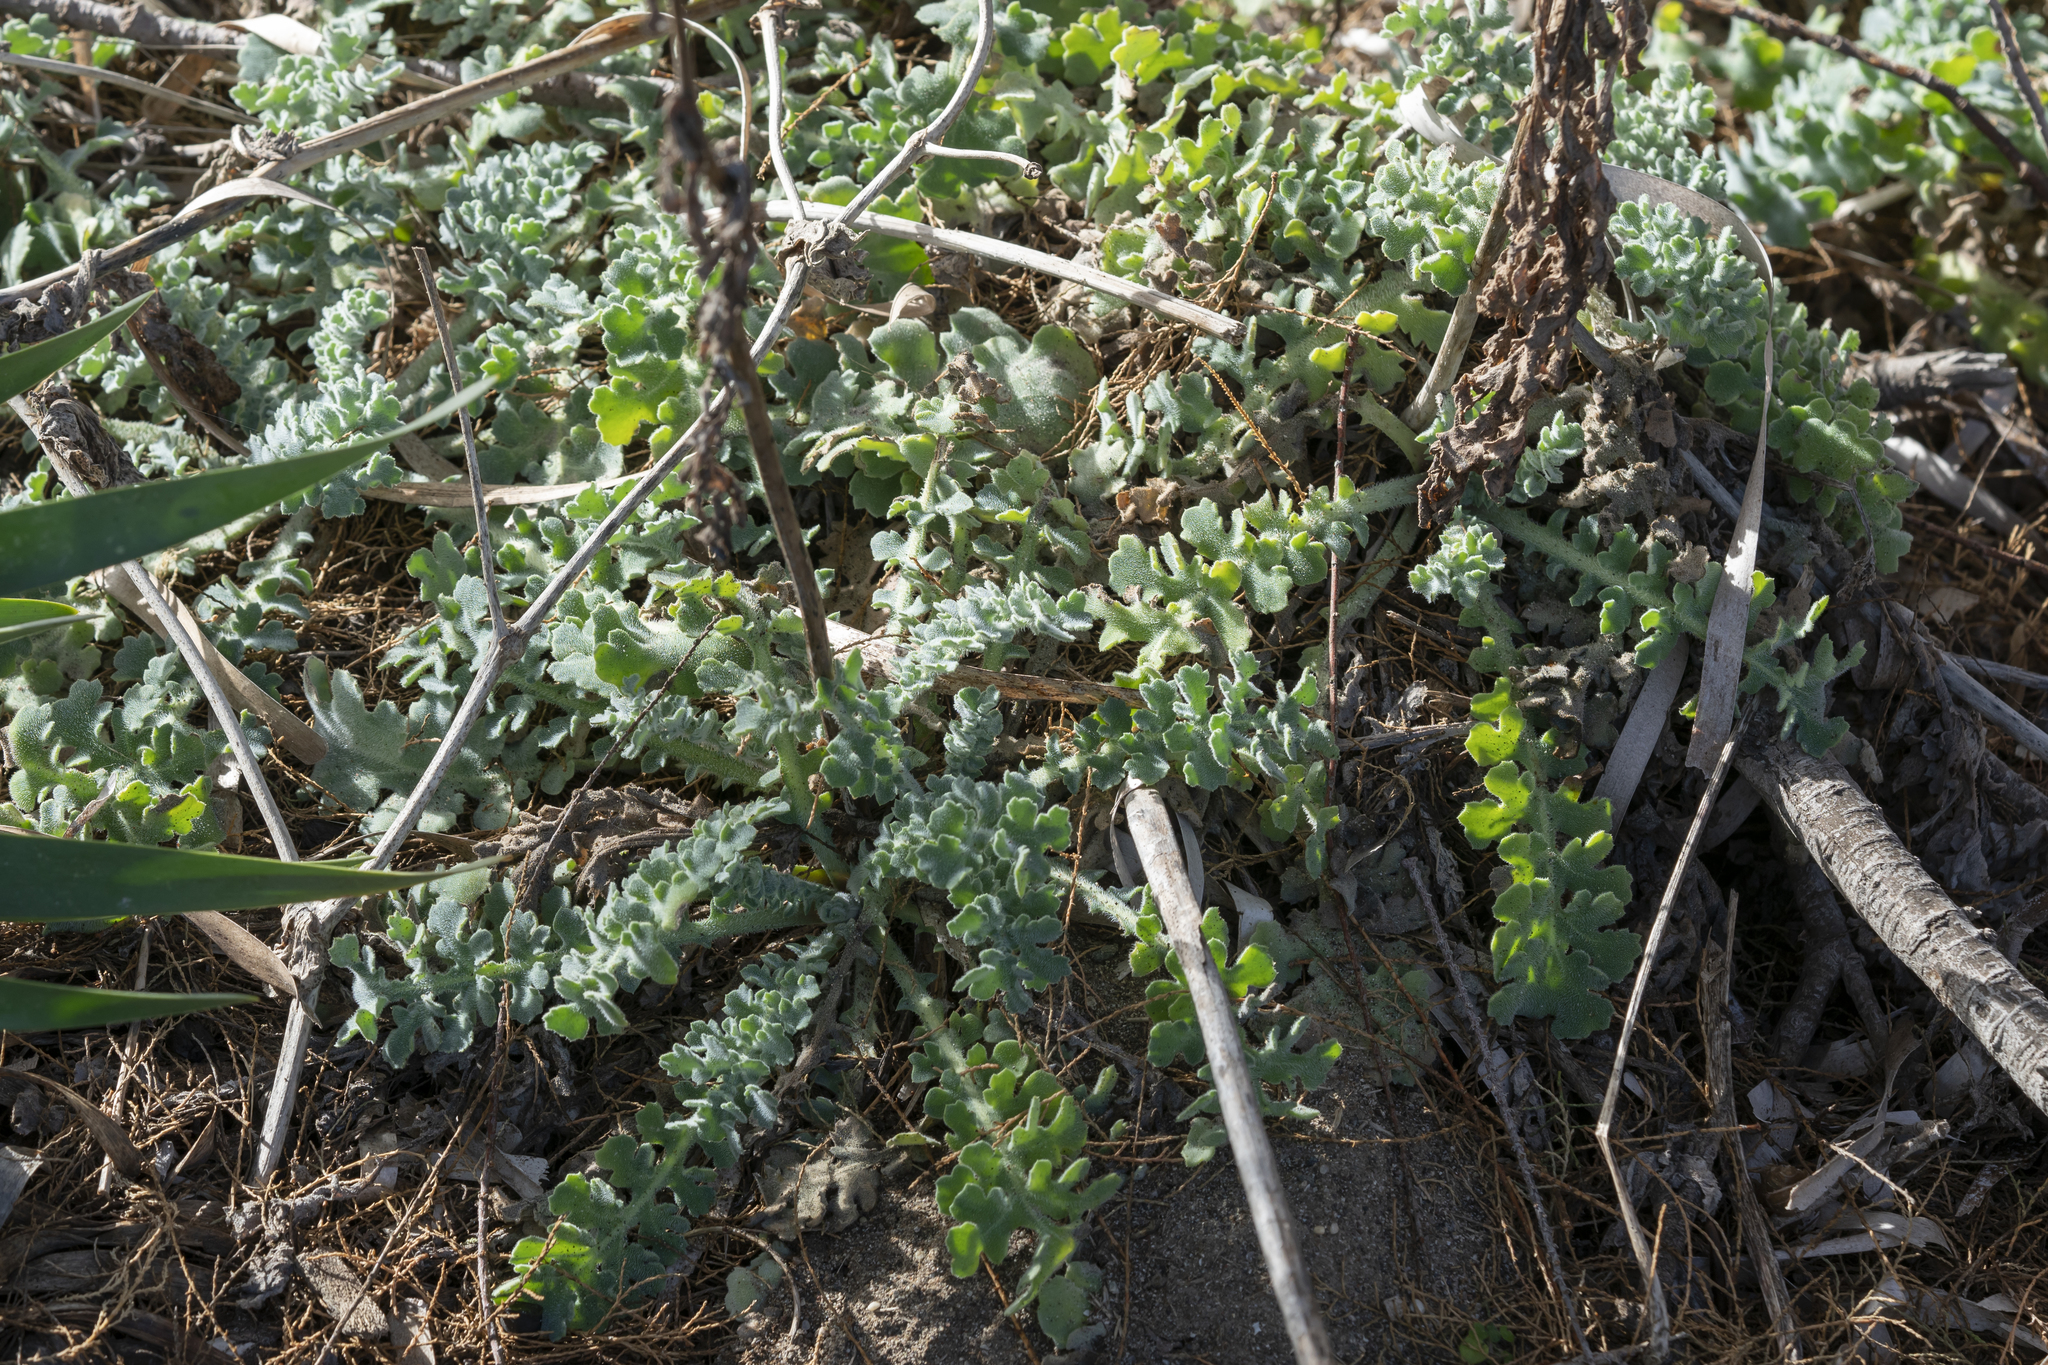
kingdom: Plantae
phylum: Tracheophyta
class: Magnoliopsida
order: Ranunculales
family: Papaveraceae
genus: Glaucium
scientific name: Glaucium flavum
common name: Yellow horned-poppy
